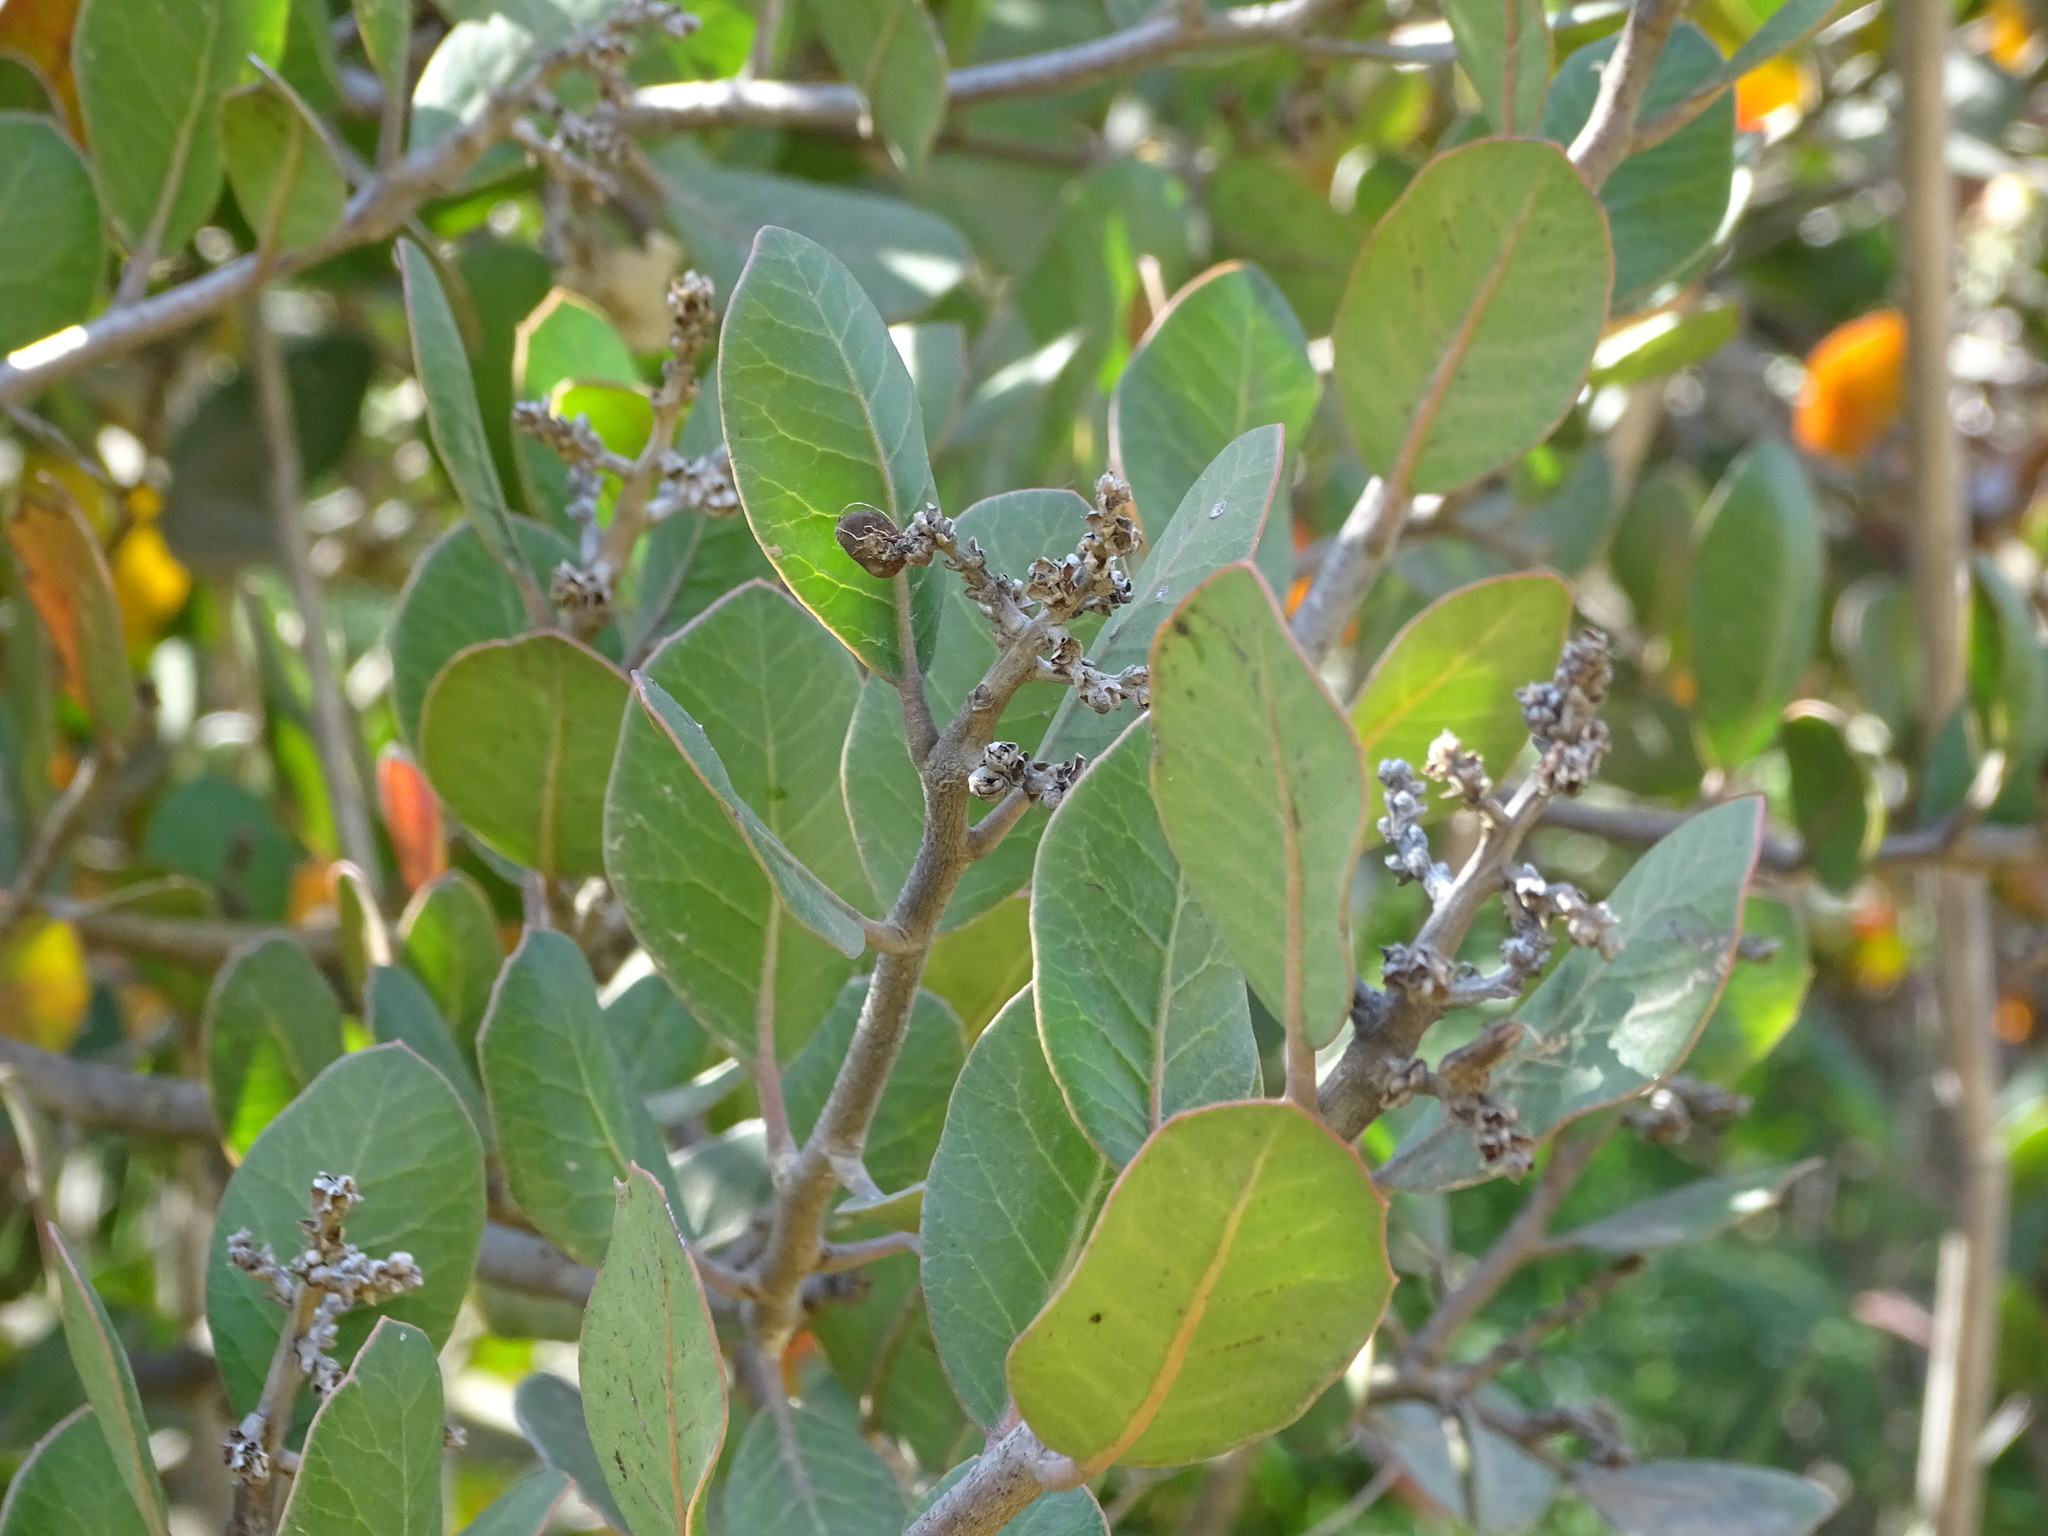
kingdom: Plantae
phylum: Tracheophyta
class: Magnoliopsida
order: Sapindales
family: Anacardiaceae
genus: Rhus
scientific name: Rhus integrifolia
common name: Lemonade sumac
